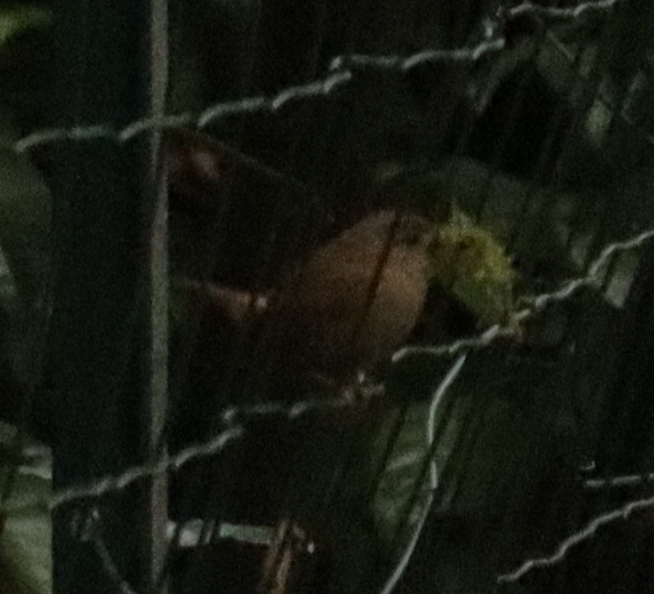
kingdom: Animalia
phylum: Chordata
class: Aves
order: Passeriformes
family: Troglodytidae
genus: Troglodytes
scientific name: Troglodytes troglodytes
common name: Eurasian wren
